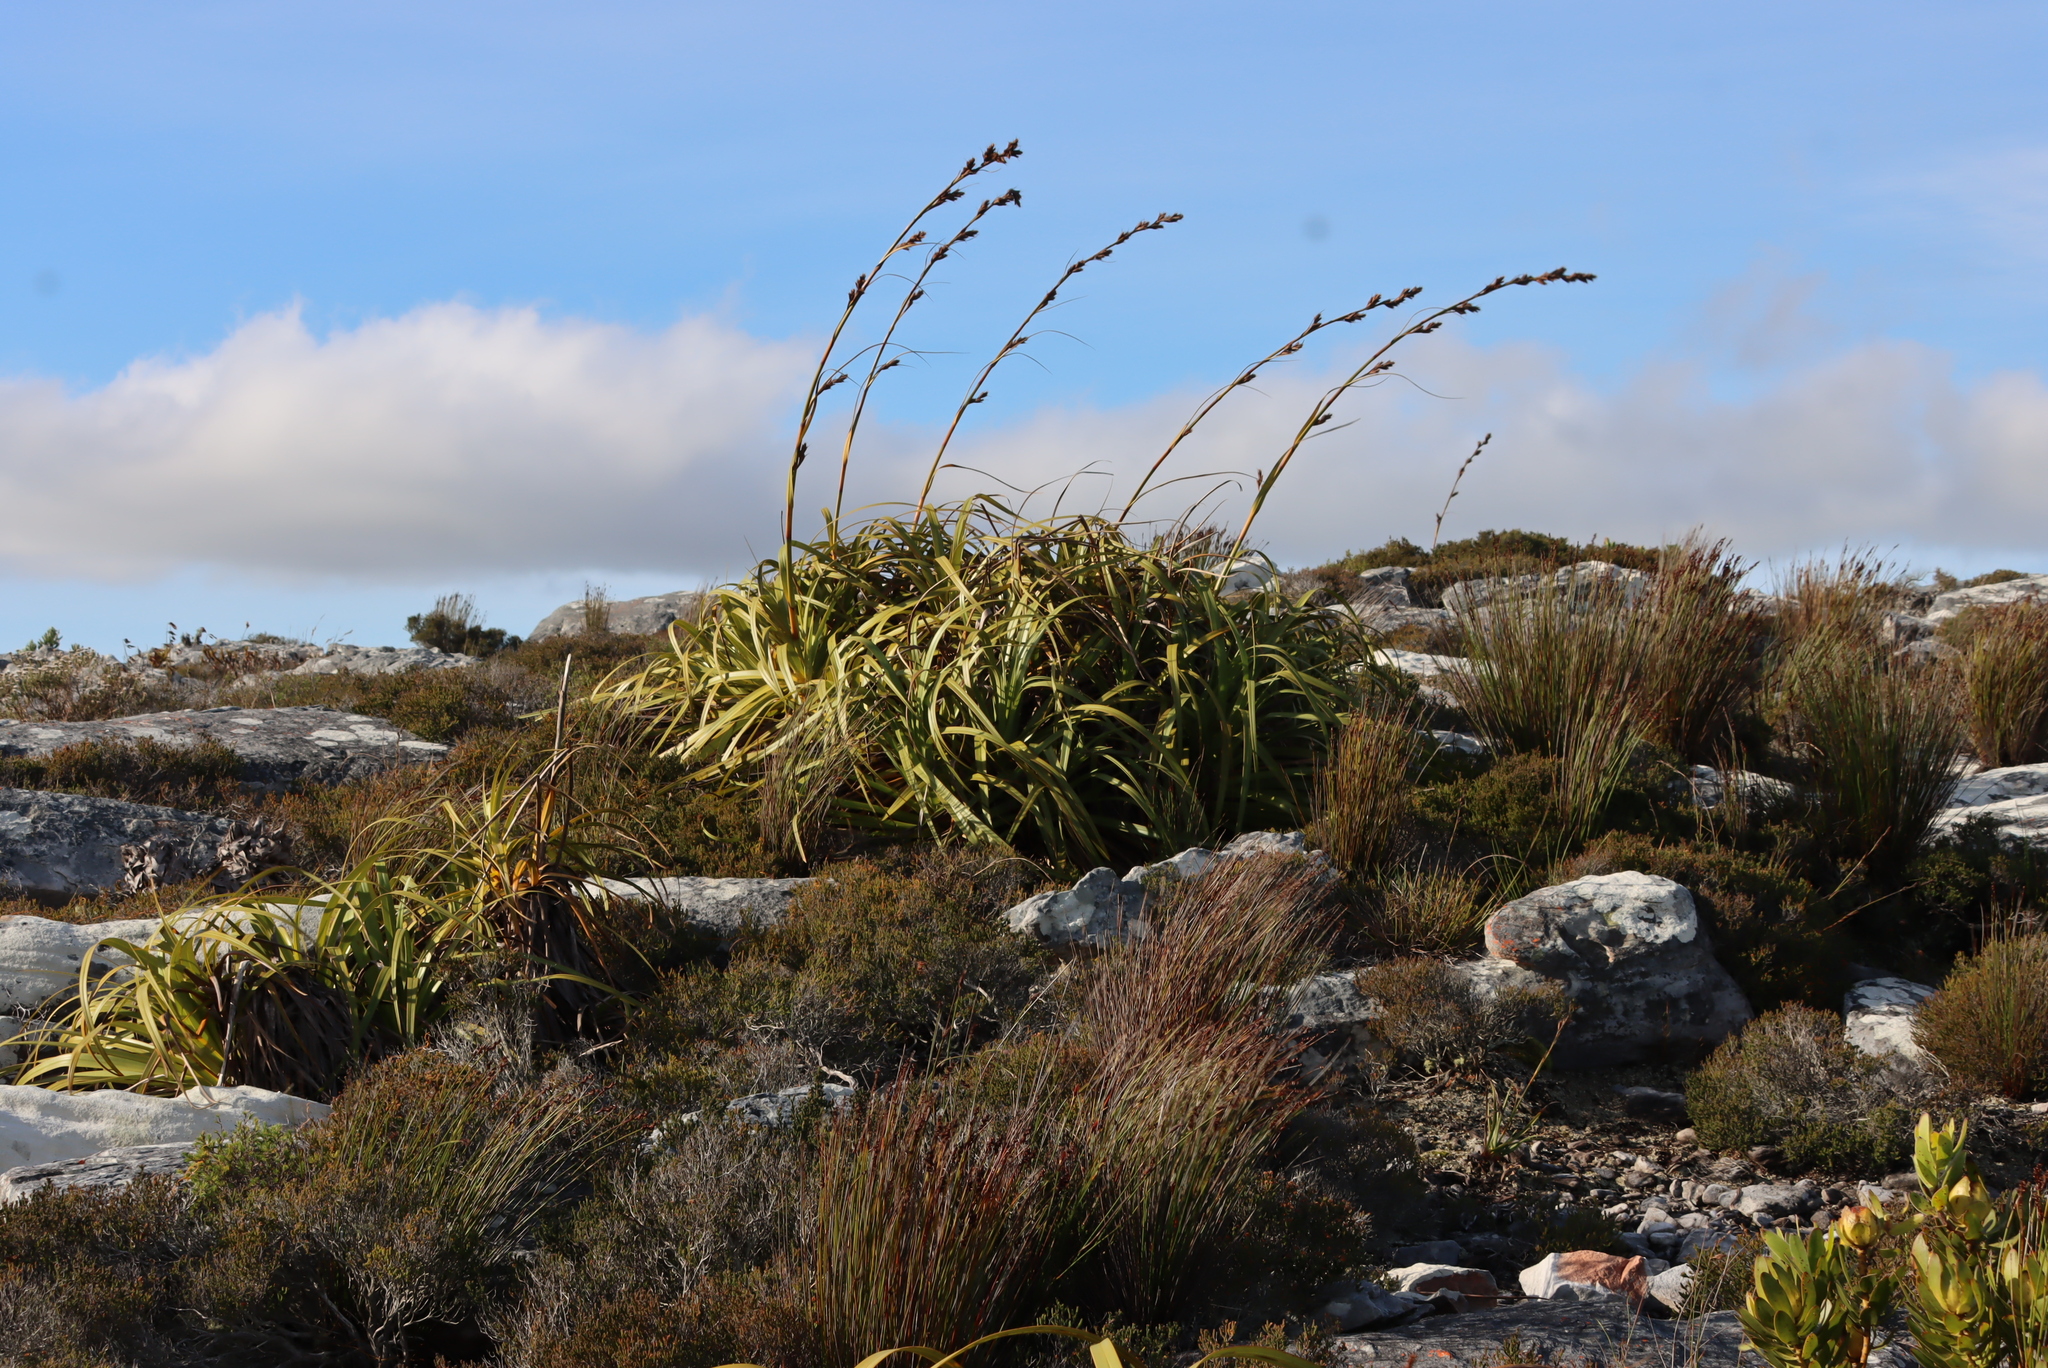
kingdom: Plantae
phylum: Tracheophyta
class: Liliopsida
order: Poales
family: Cyperaceae
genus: Tetraria
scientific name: Tetraria thermalis
